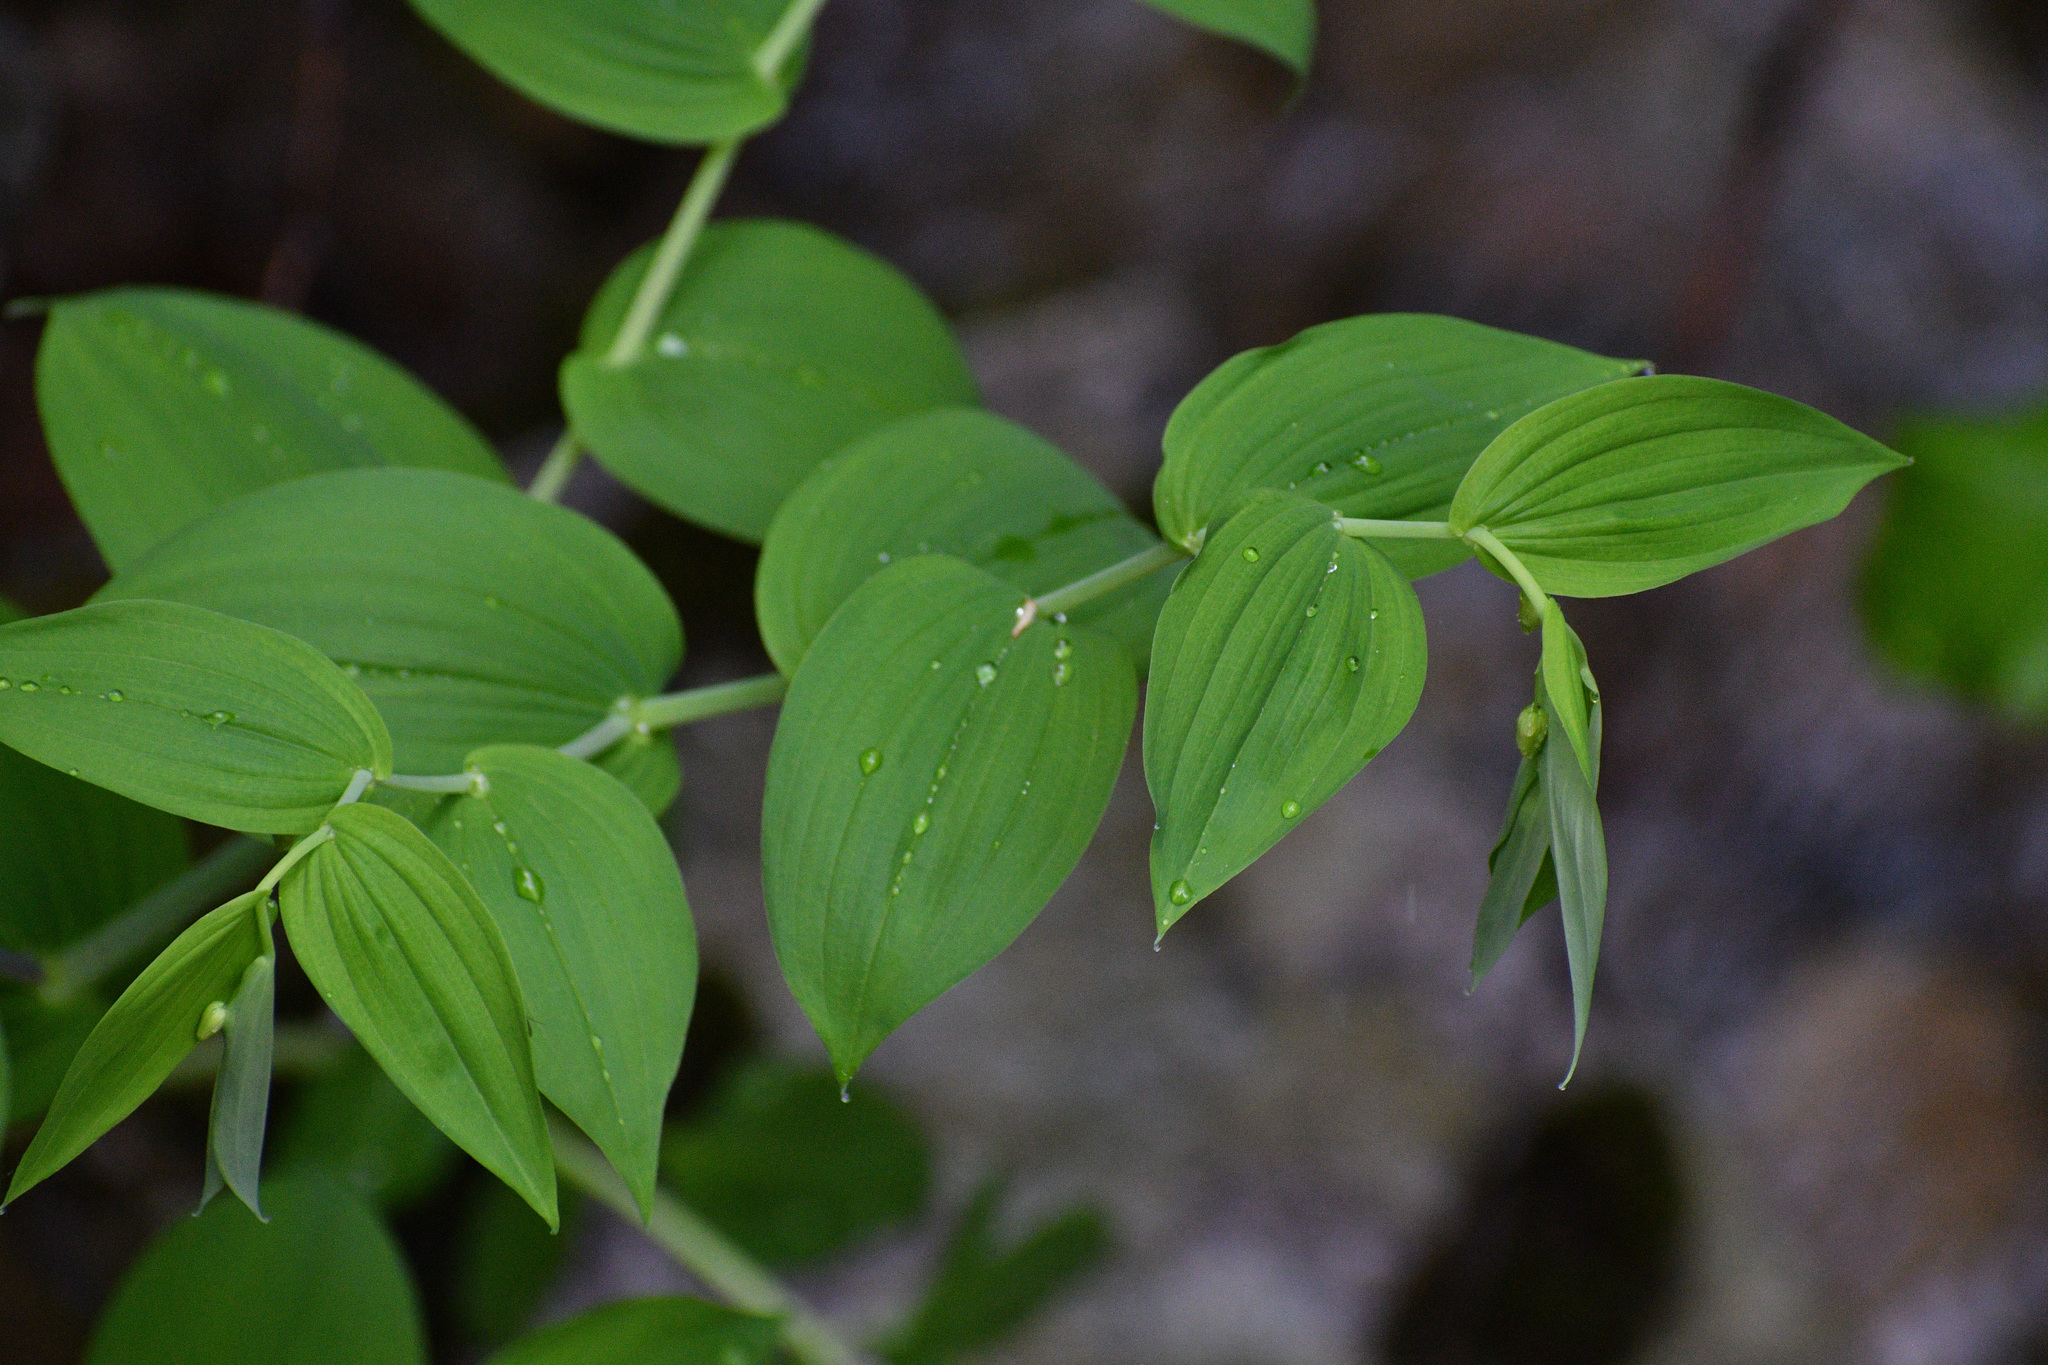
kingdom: Plantae
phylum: Tracheophyta
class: Liliopsida
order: Liliales
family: Liliaceae
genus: Streptopus
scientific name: Streptopus amplexifolius
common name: Clasp twisted stalk
